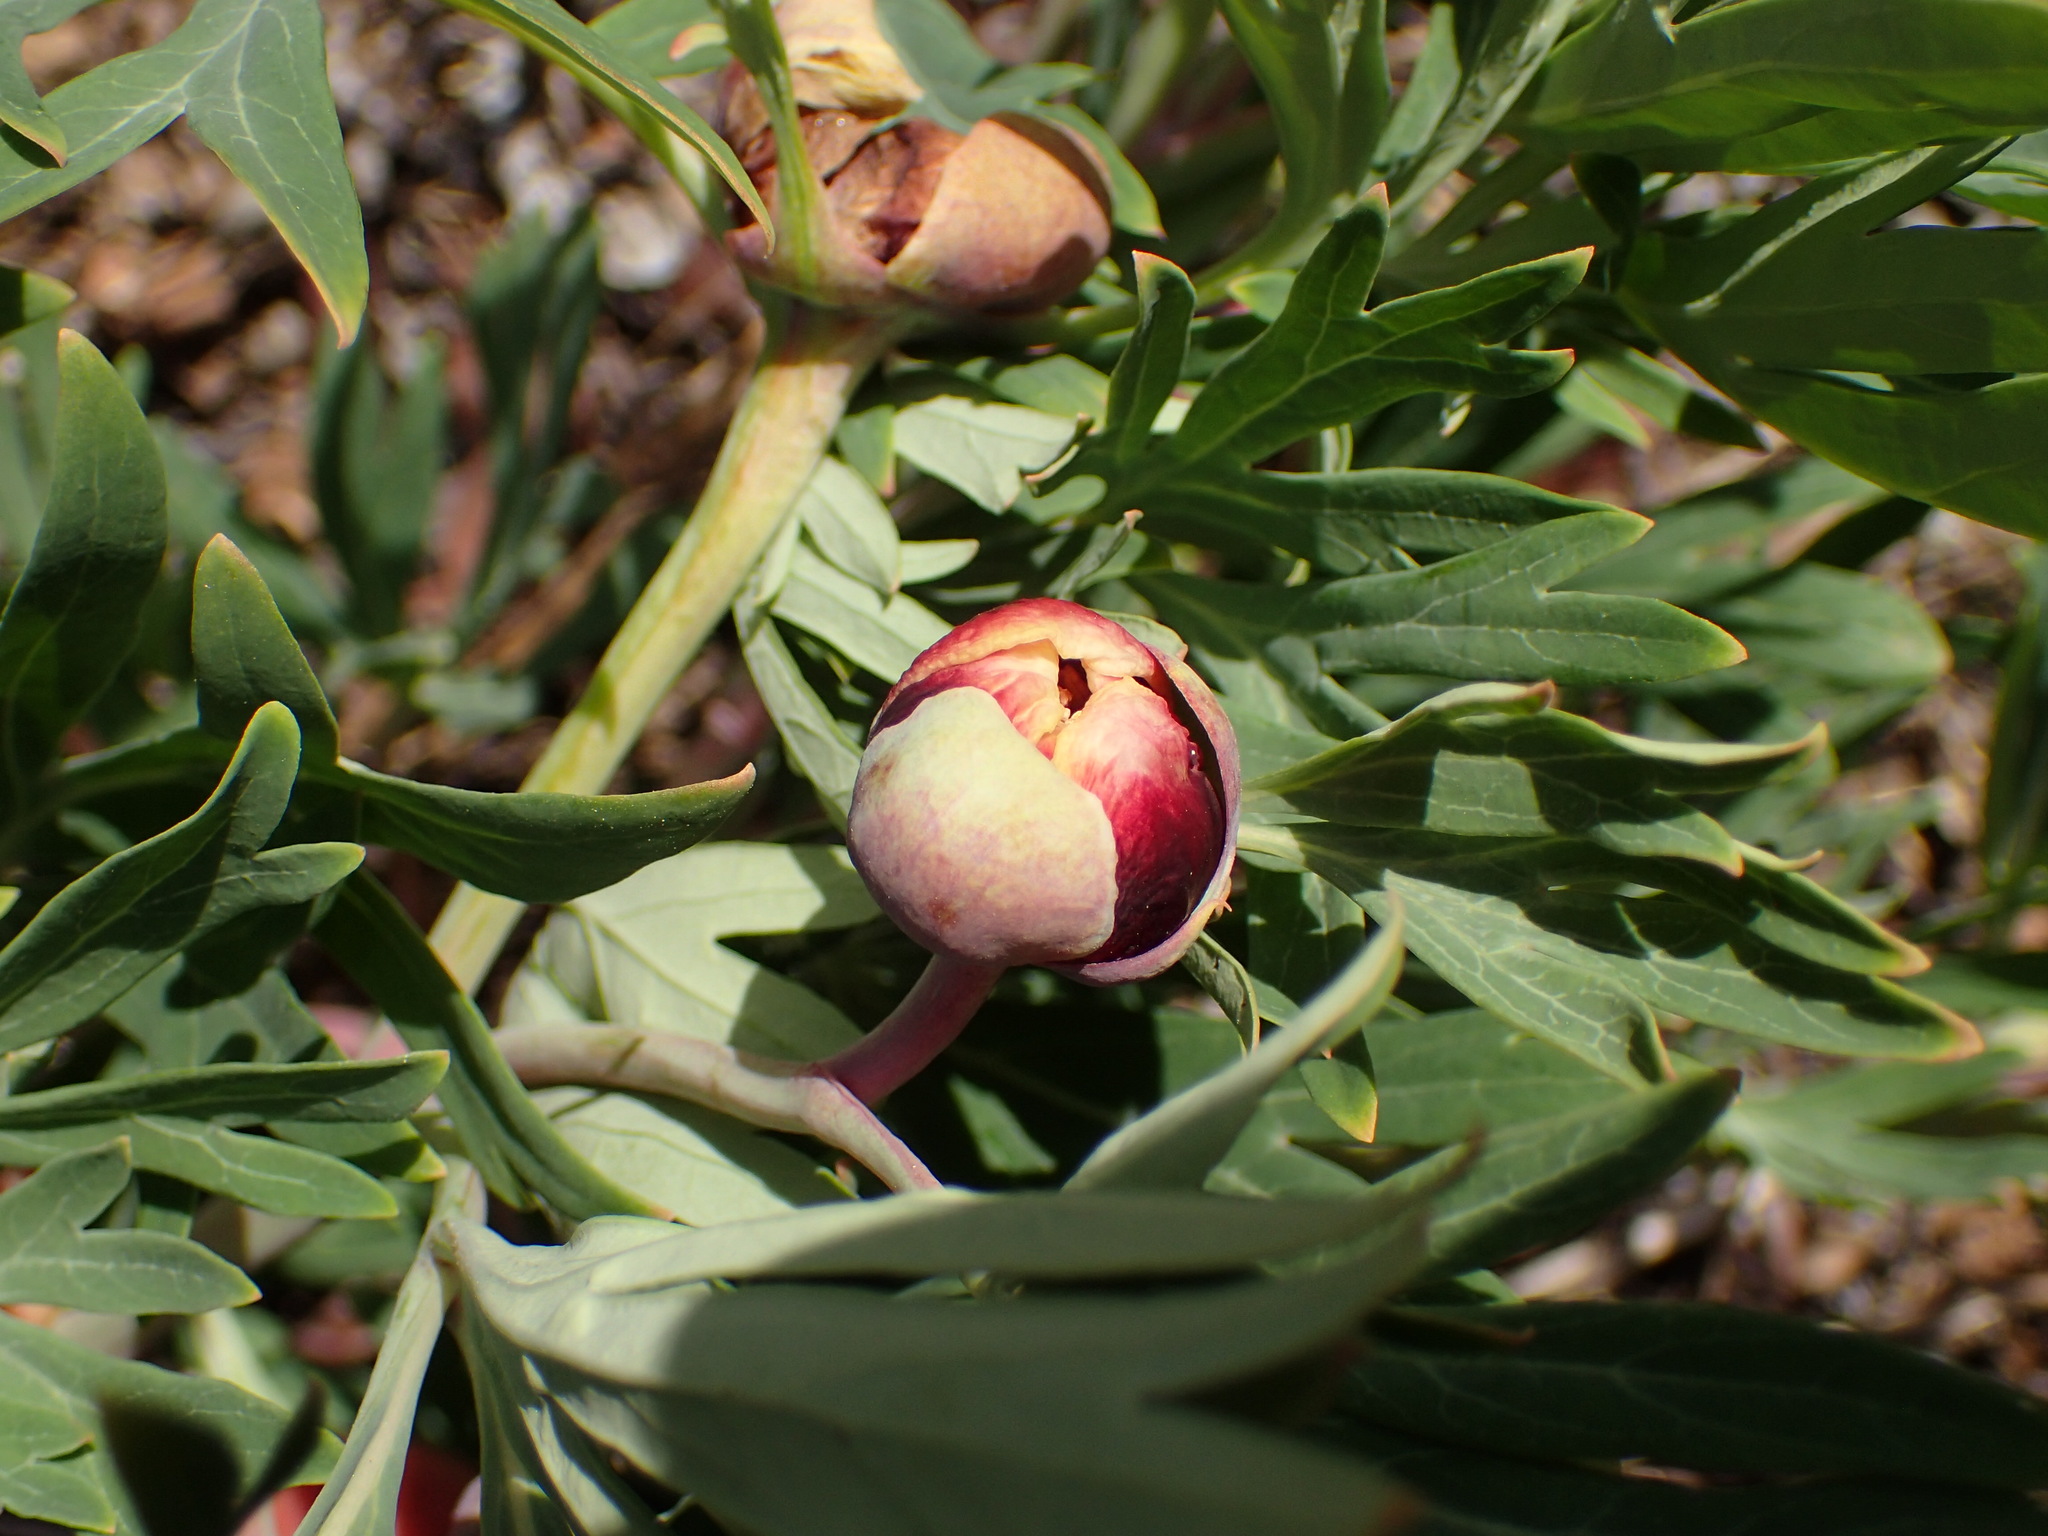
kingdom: Plantae
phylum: Tracheophyta
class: Magnoliopsida
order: Saxifragales
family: Paeoniaceae
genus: Paeonia
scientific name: Paeonia californica
